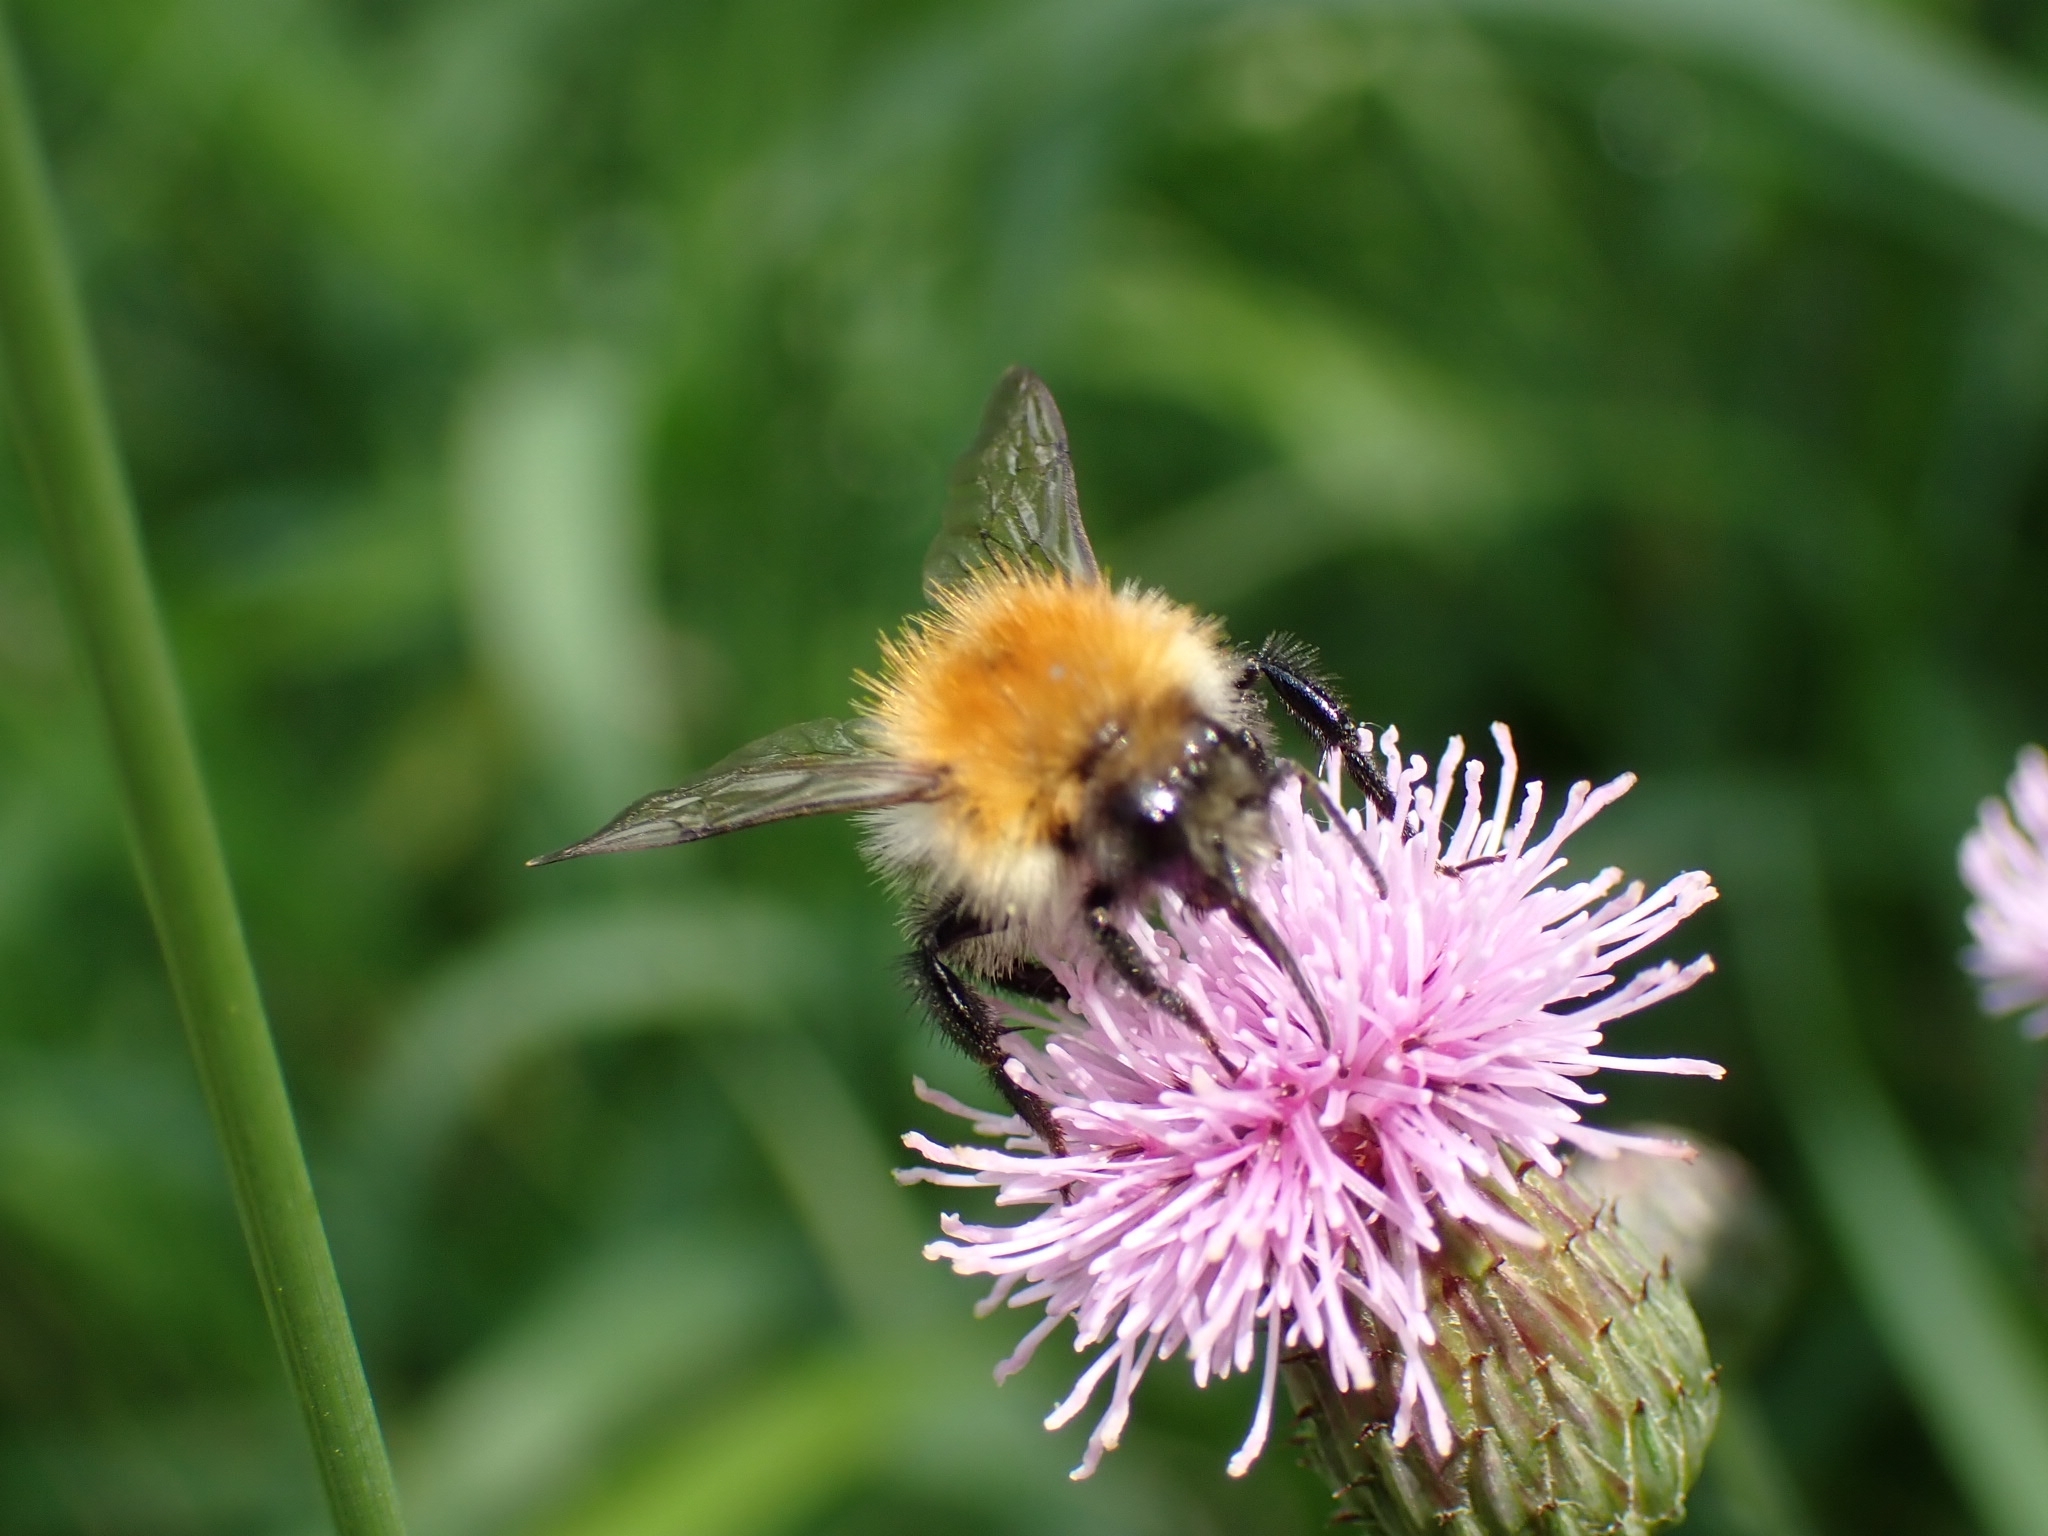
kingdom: Animalia
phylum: Arthropoda
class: Insecta
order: Hymenoptera
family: Apidae
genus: Bombus
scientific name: Bombus pascuorum
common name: Common carder bee
